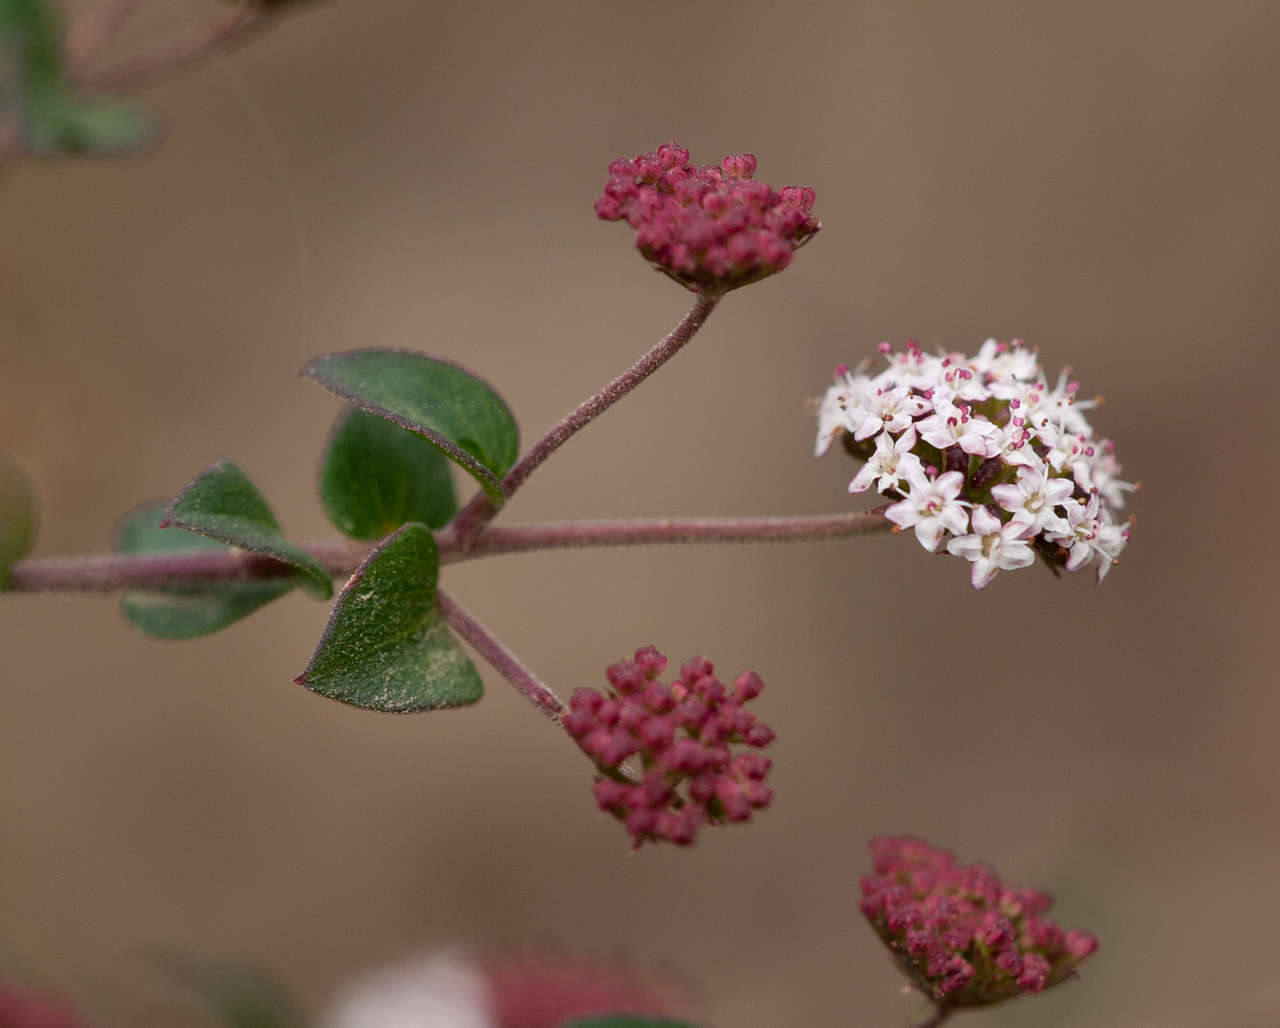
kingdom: Plantae
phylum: Tracheophyta
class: Magnoliopsida
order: Apiales
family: Apiaceae
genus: Platysace
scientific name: Platysace lanceolata
